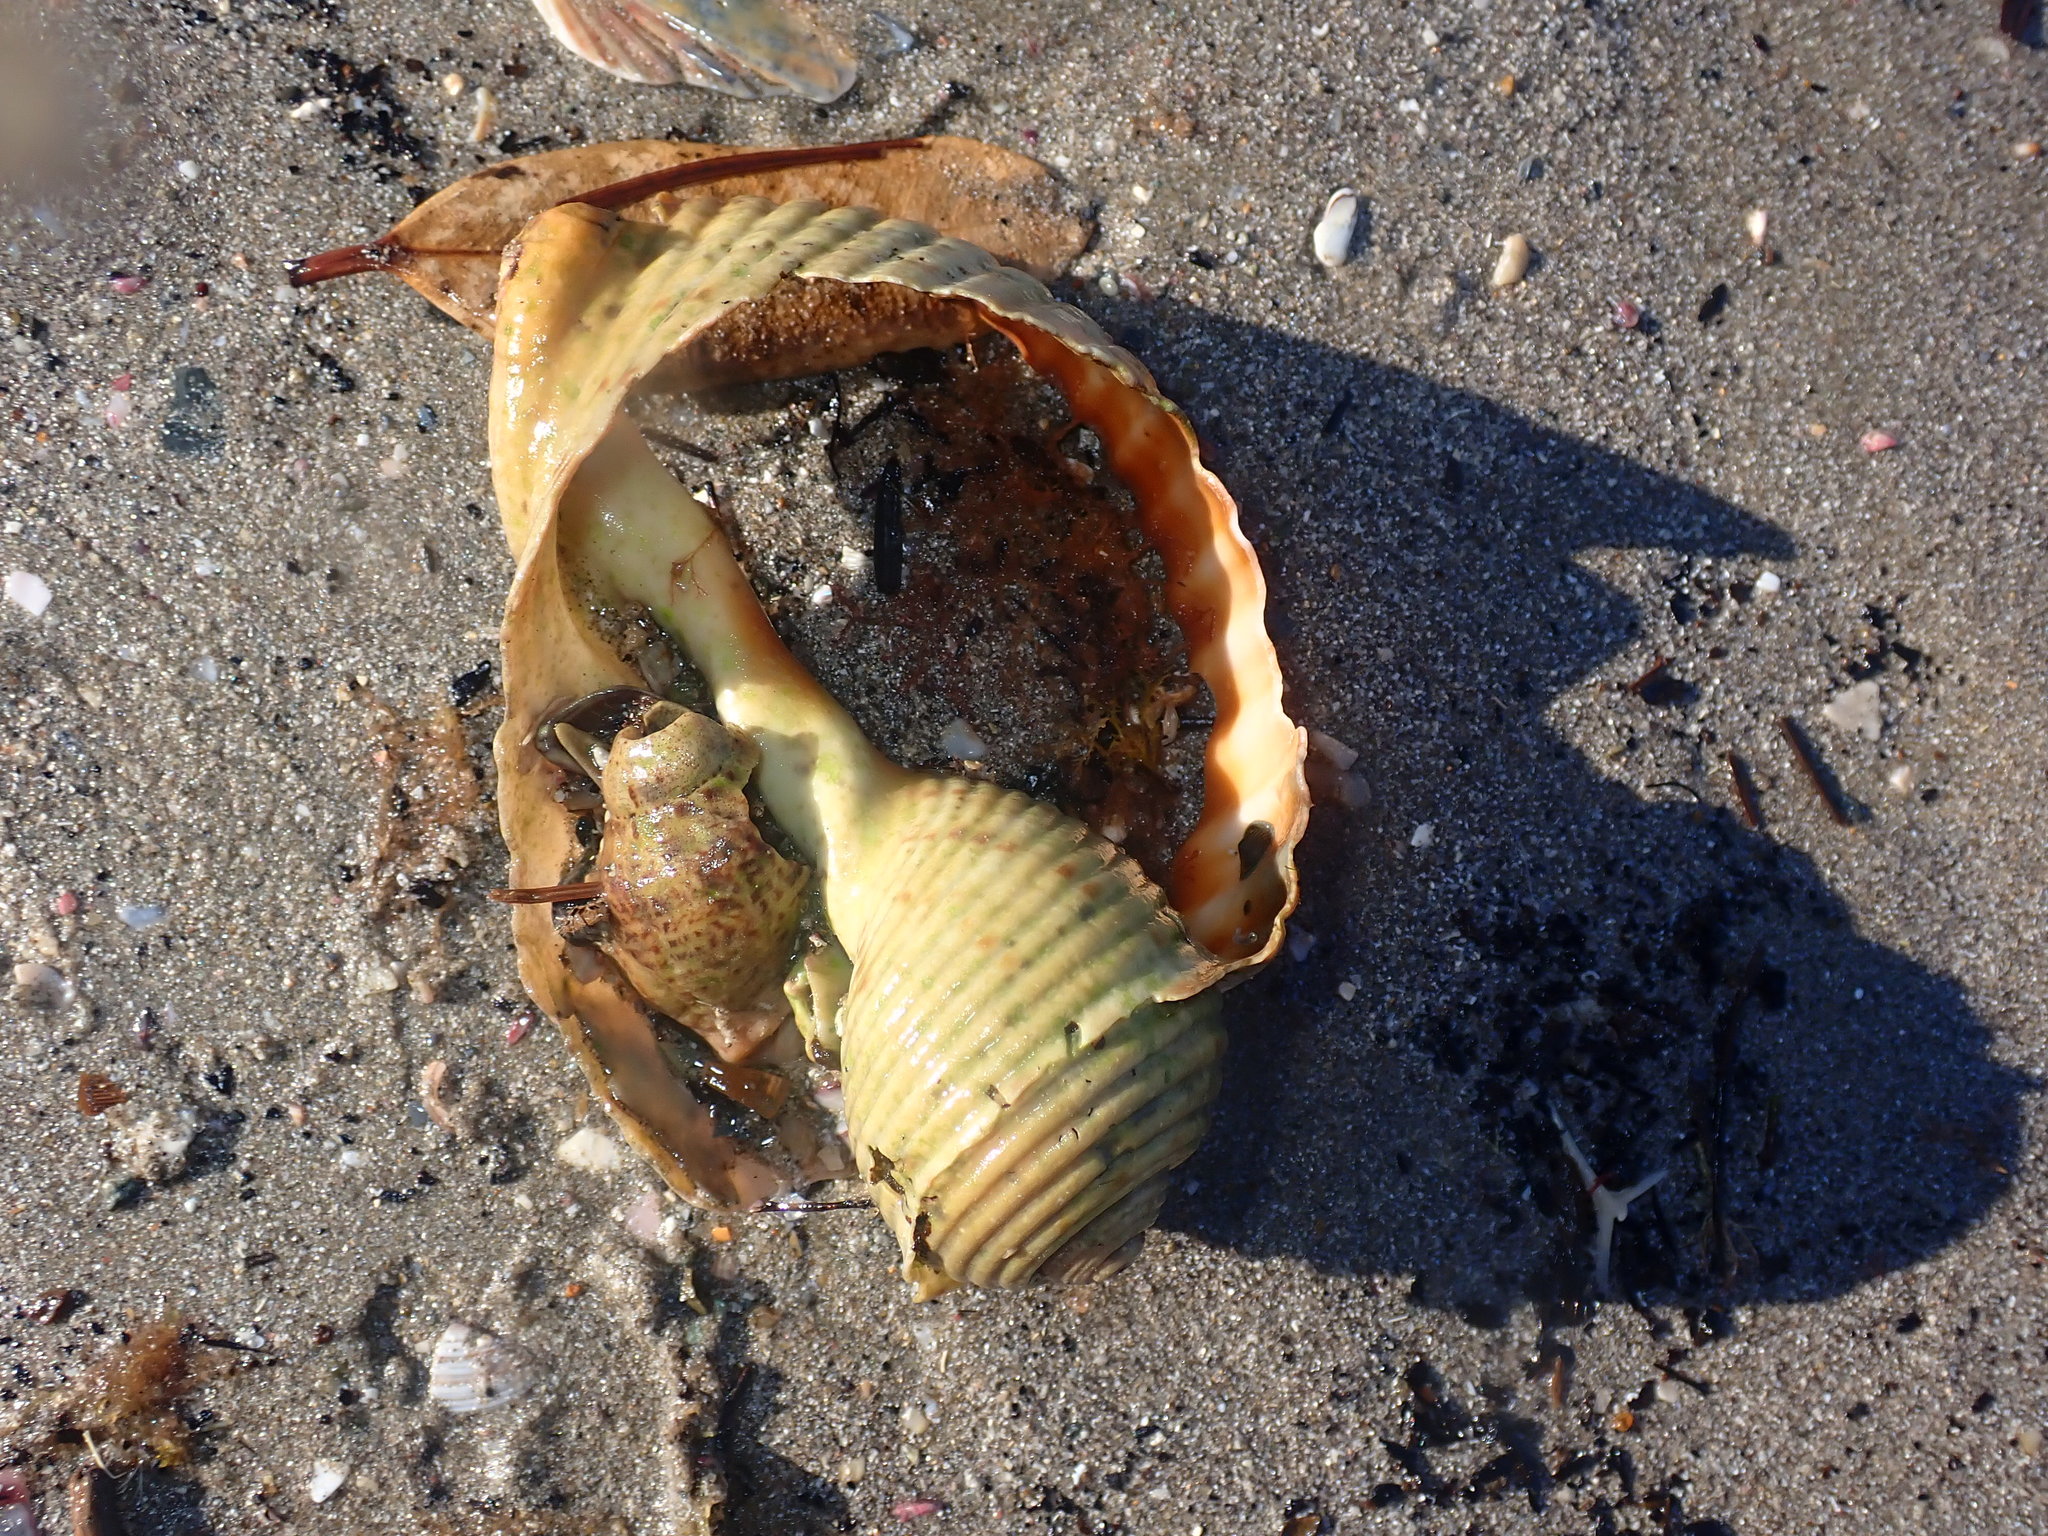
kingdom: Animalia
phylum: Mollusca
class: Gastropoda
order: Littorinimorpha
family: Tonnidae
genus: Tonna
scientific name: Tonna tankervillii
